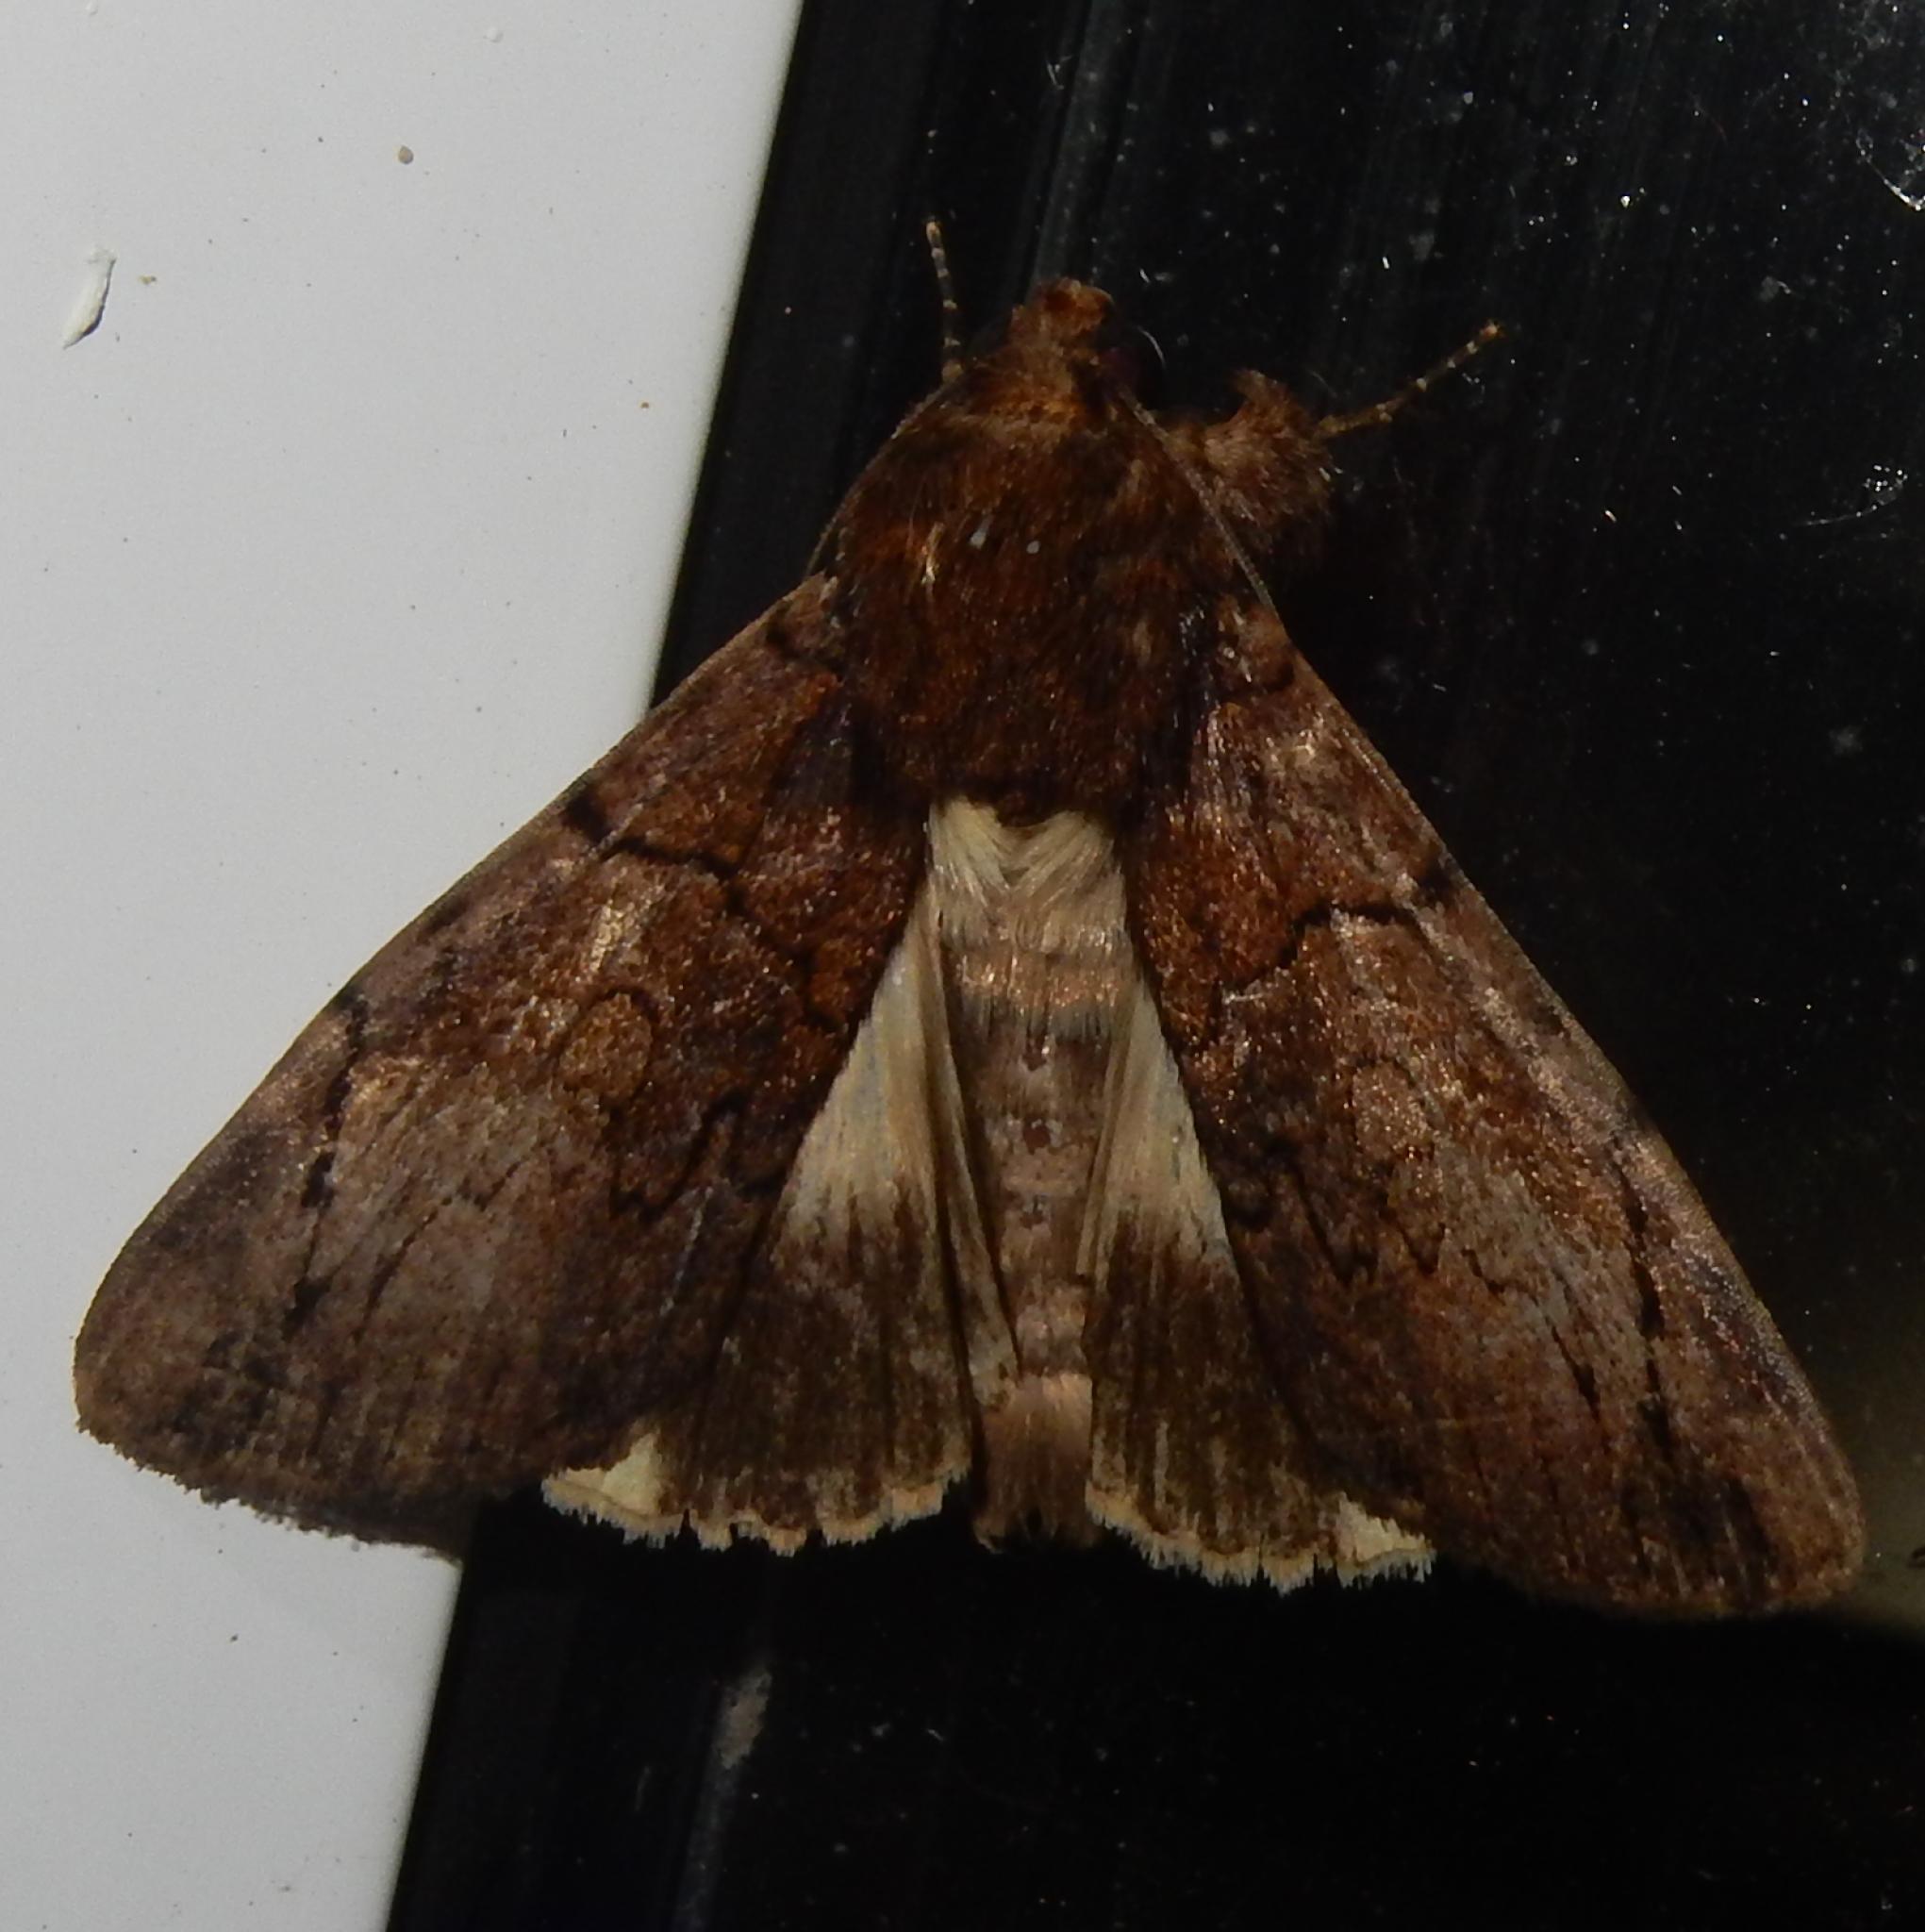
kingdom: Animalia
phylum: Arthropoda
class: Insecta
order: Lepidoptera
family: Erebidae
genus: Ulotrichopus
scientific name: Ulotrichopus mesoleuca
